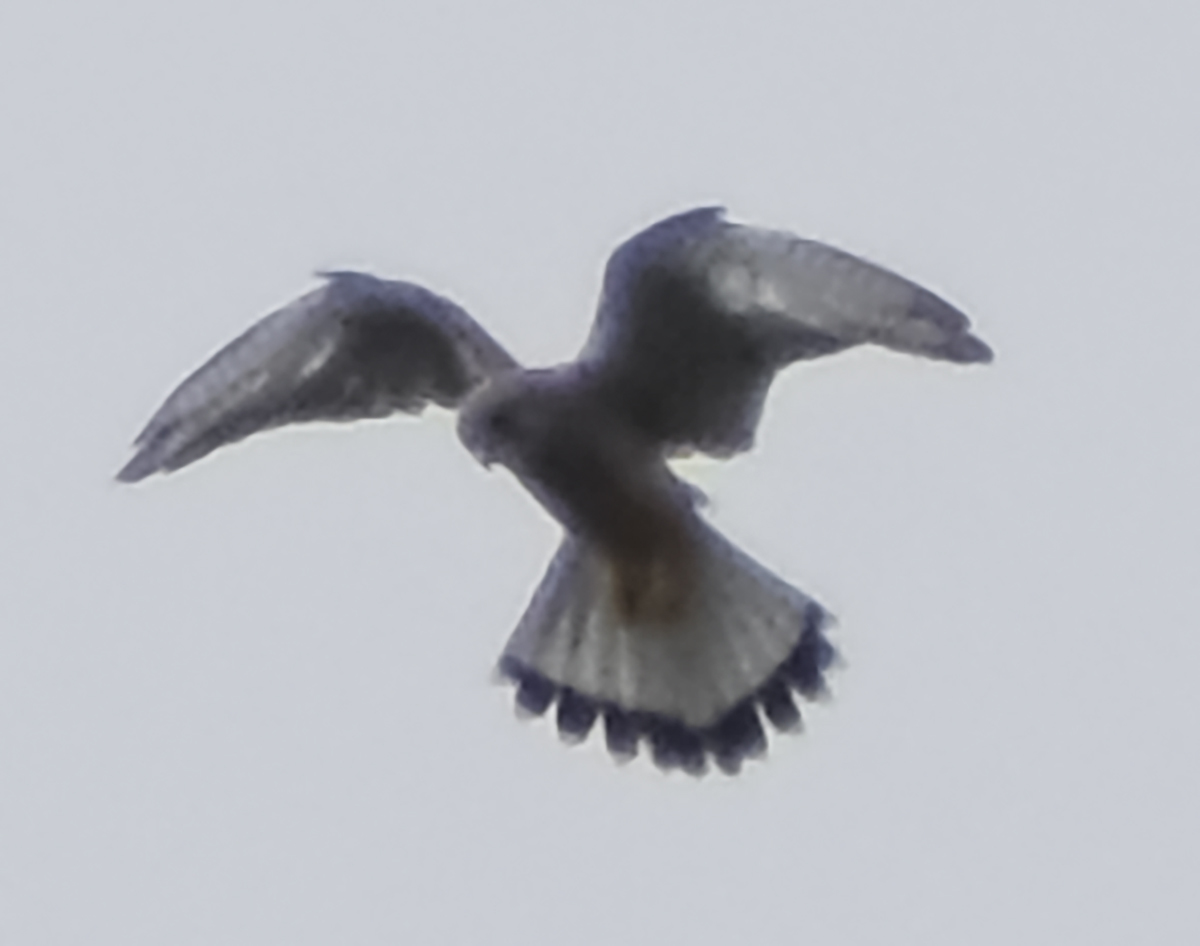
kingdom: Animalia
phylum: Chordata
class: Aves
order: Falconiformes
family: Falconidae
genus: Falco
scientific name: Falco tinnunculus
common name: Common kestrel
